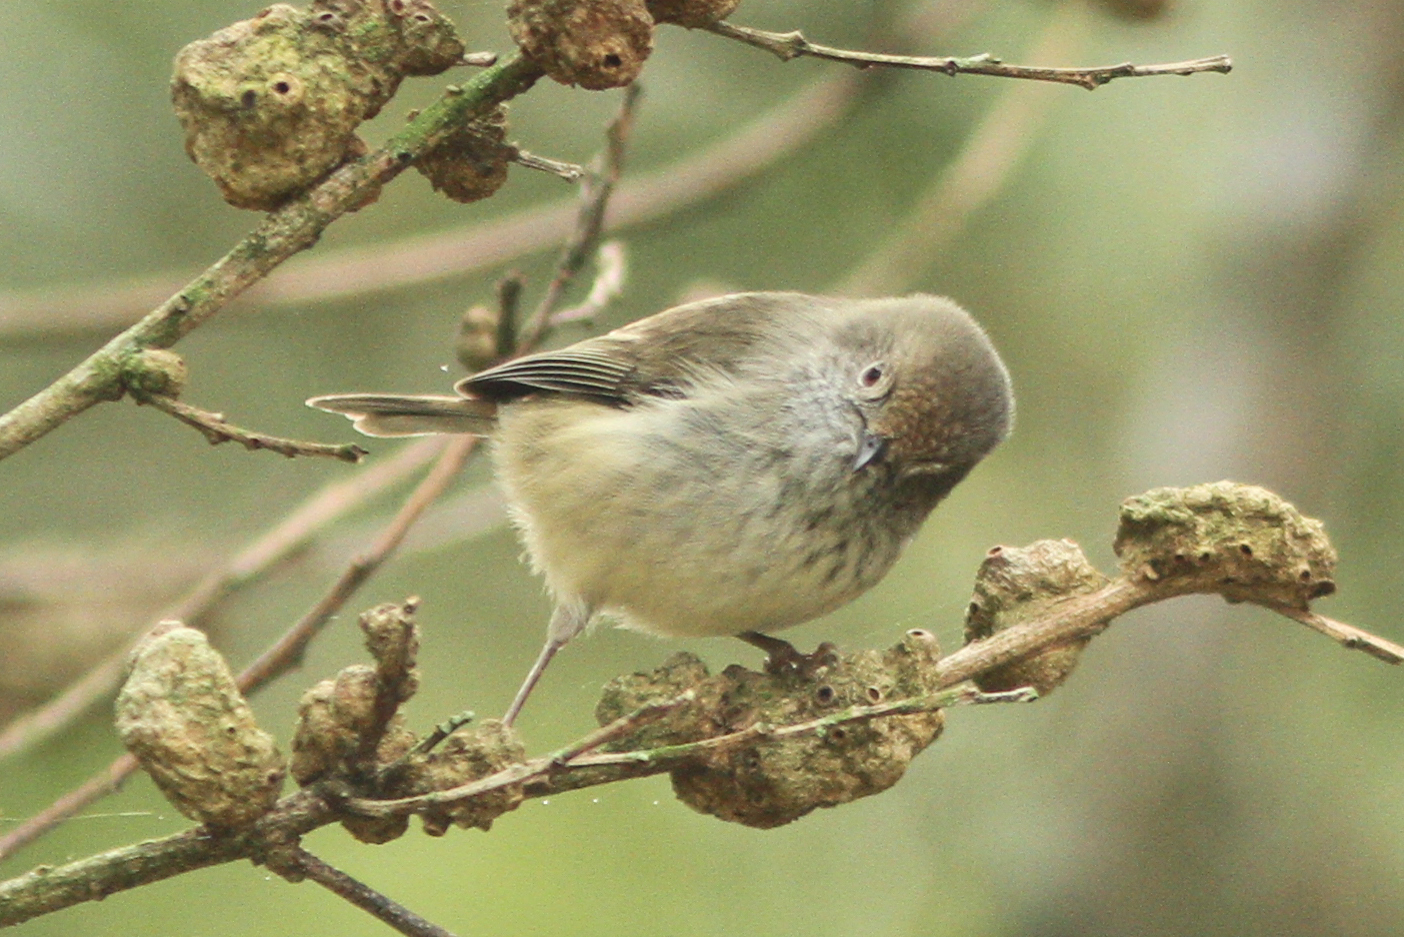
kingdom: Animalia
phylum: Chordata
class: Aves
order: Passeriformes
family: Acanthizidae
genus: Acanthiza
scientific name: Acanthiza pusilla
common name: Brown thornbill
